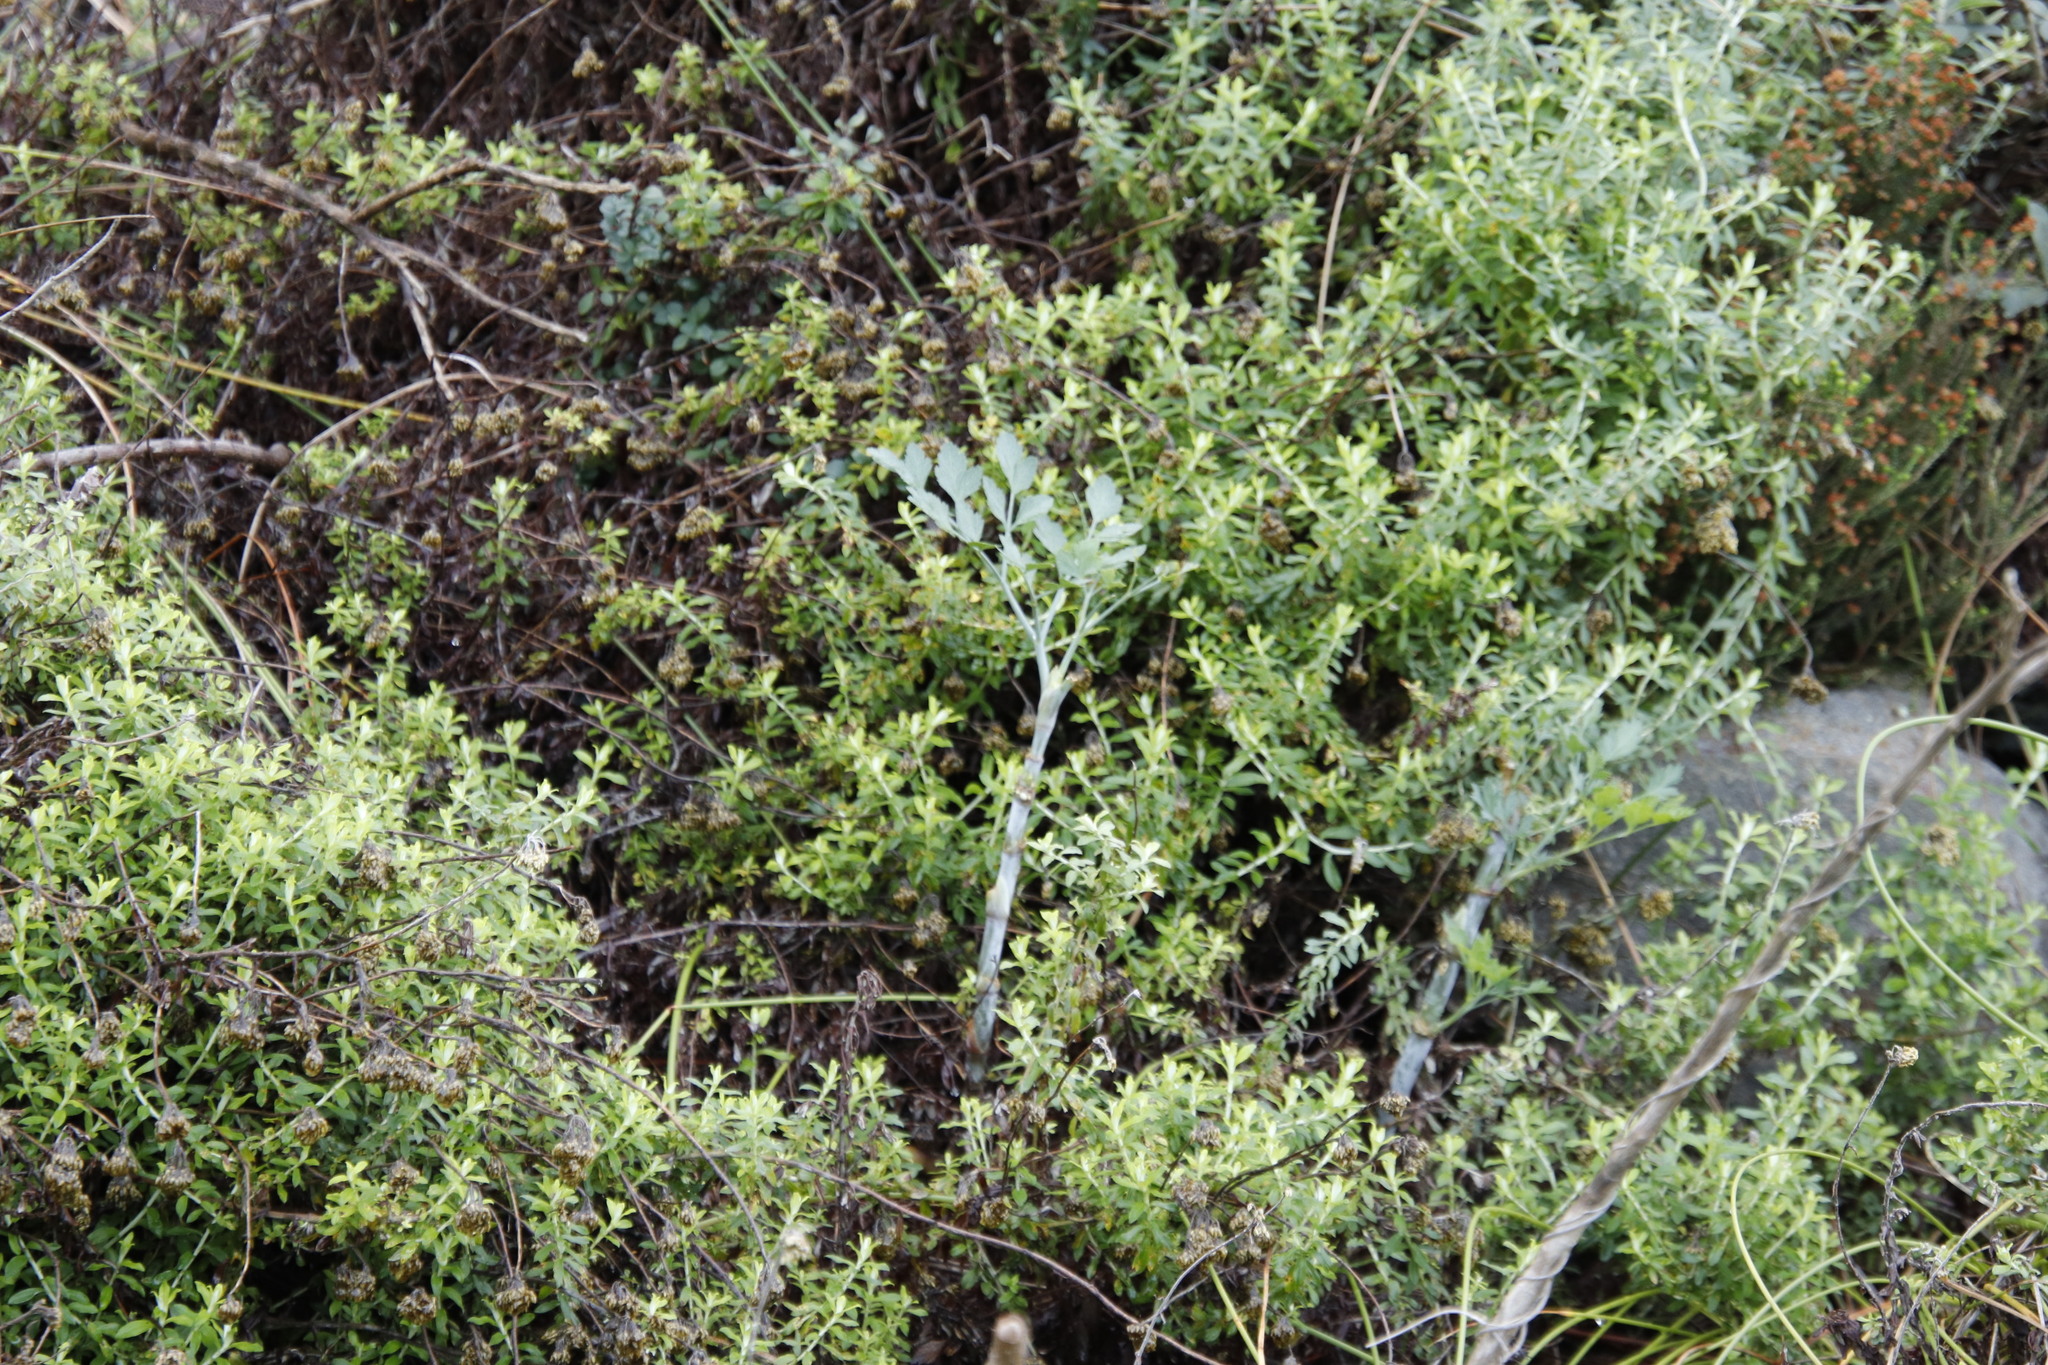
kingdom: Plantae
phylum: Tracheophyta
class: Magnoliopsida
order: Apiales
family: Apiaceae
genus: Notobubon
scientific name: Notobubon galbanum
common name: Blisterbush
